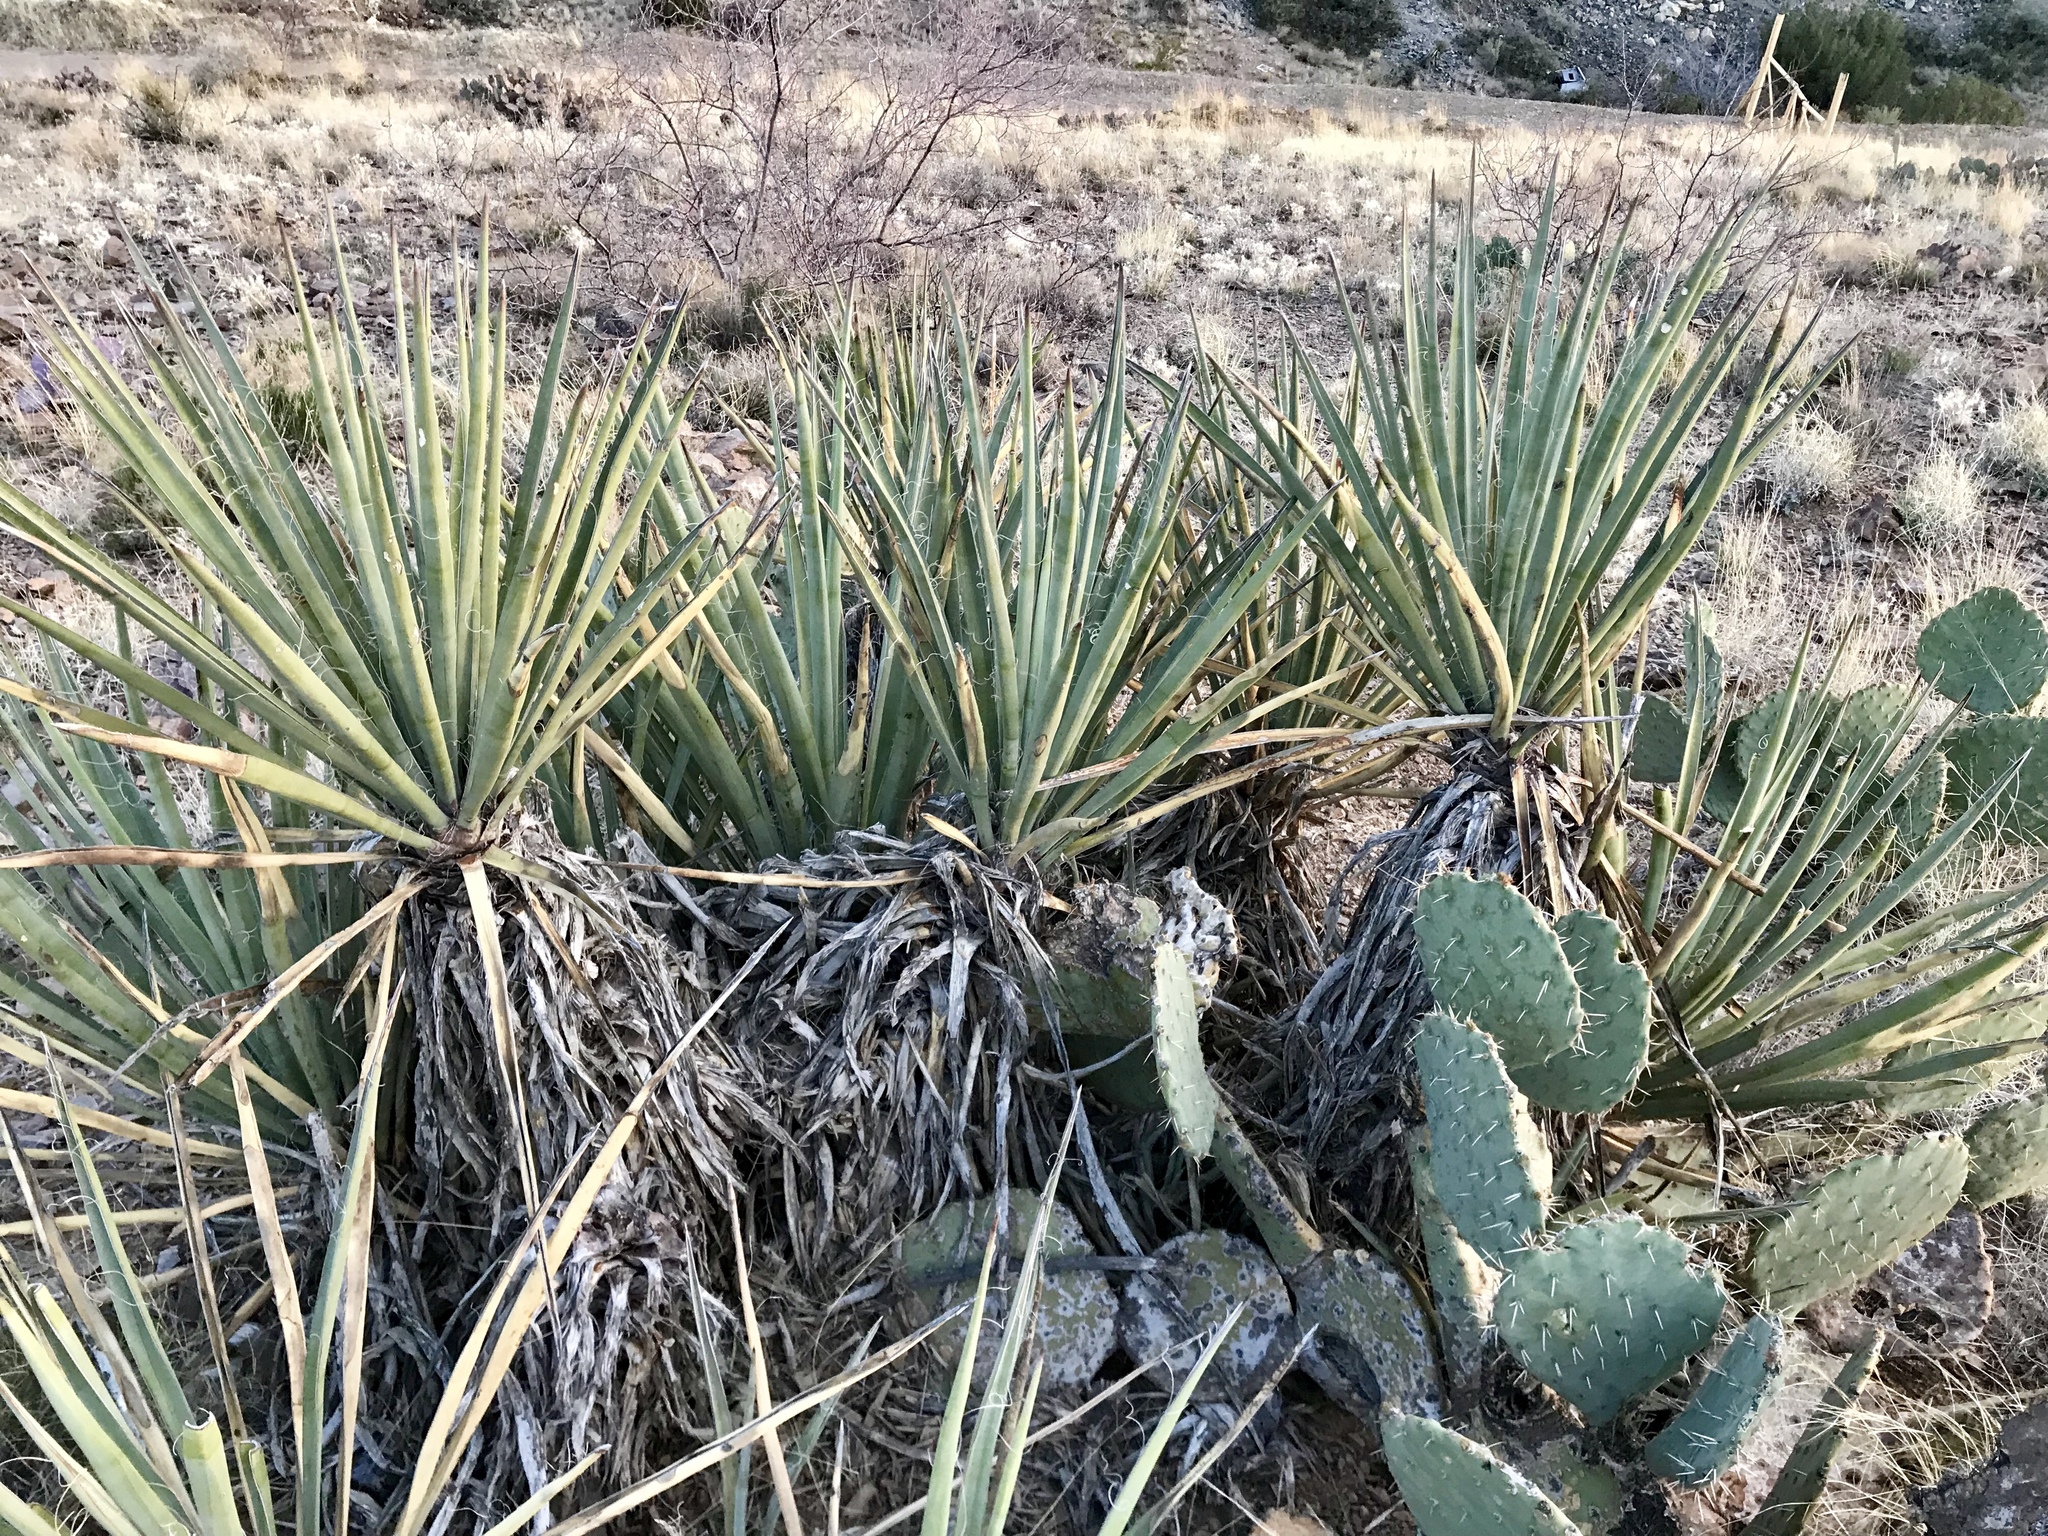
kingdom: Plantae
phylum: Tracheophyta
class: Liliopsida
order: Asparagales
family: Asparagaceae
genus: Yucca
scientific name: Yucca baccata
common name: Banana yucca
